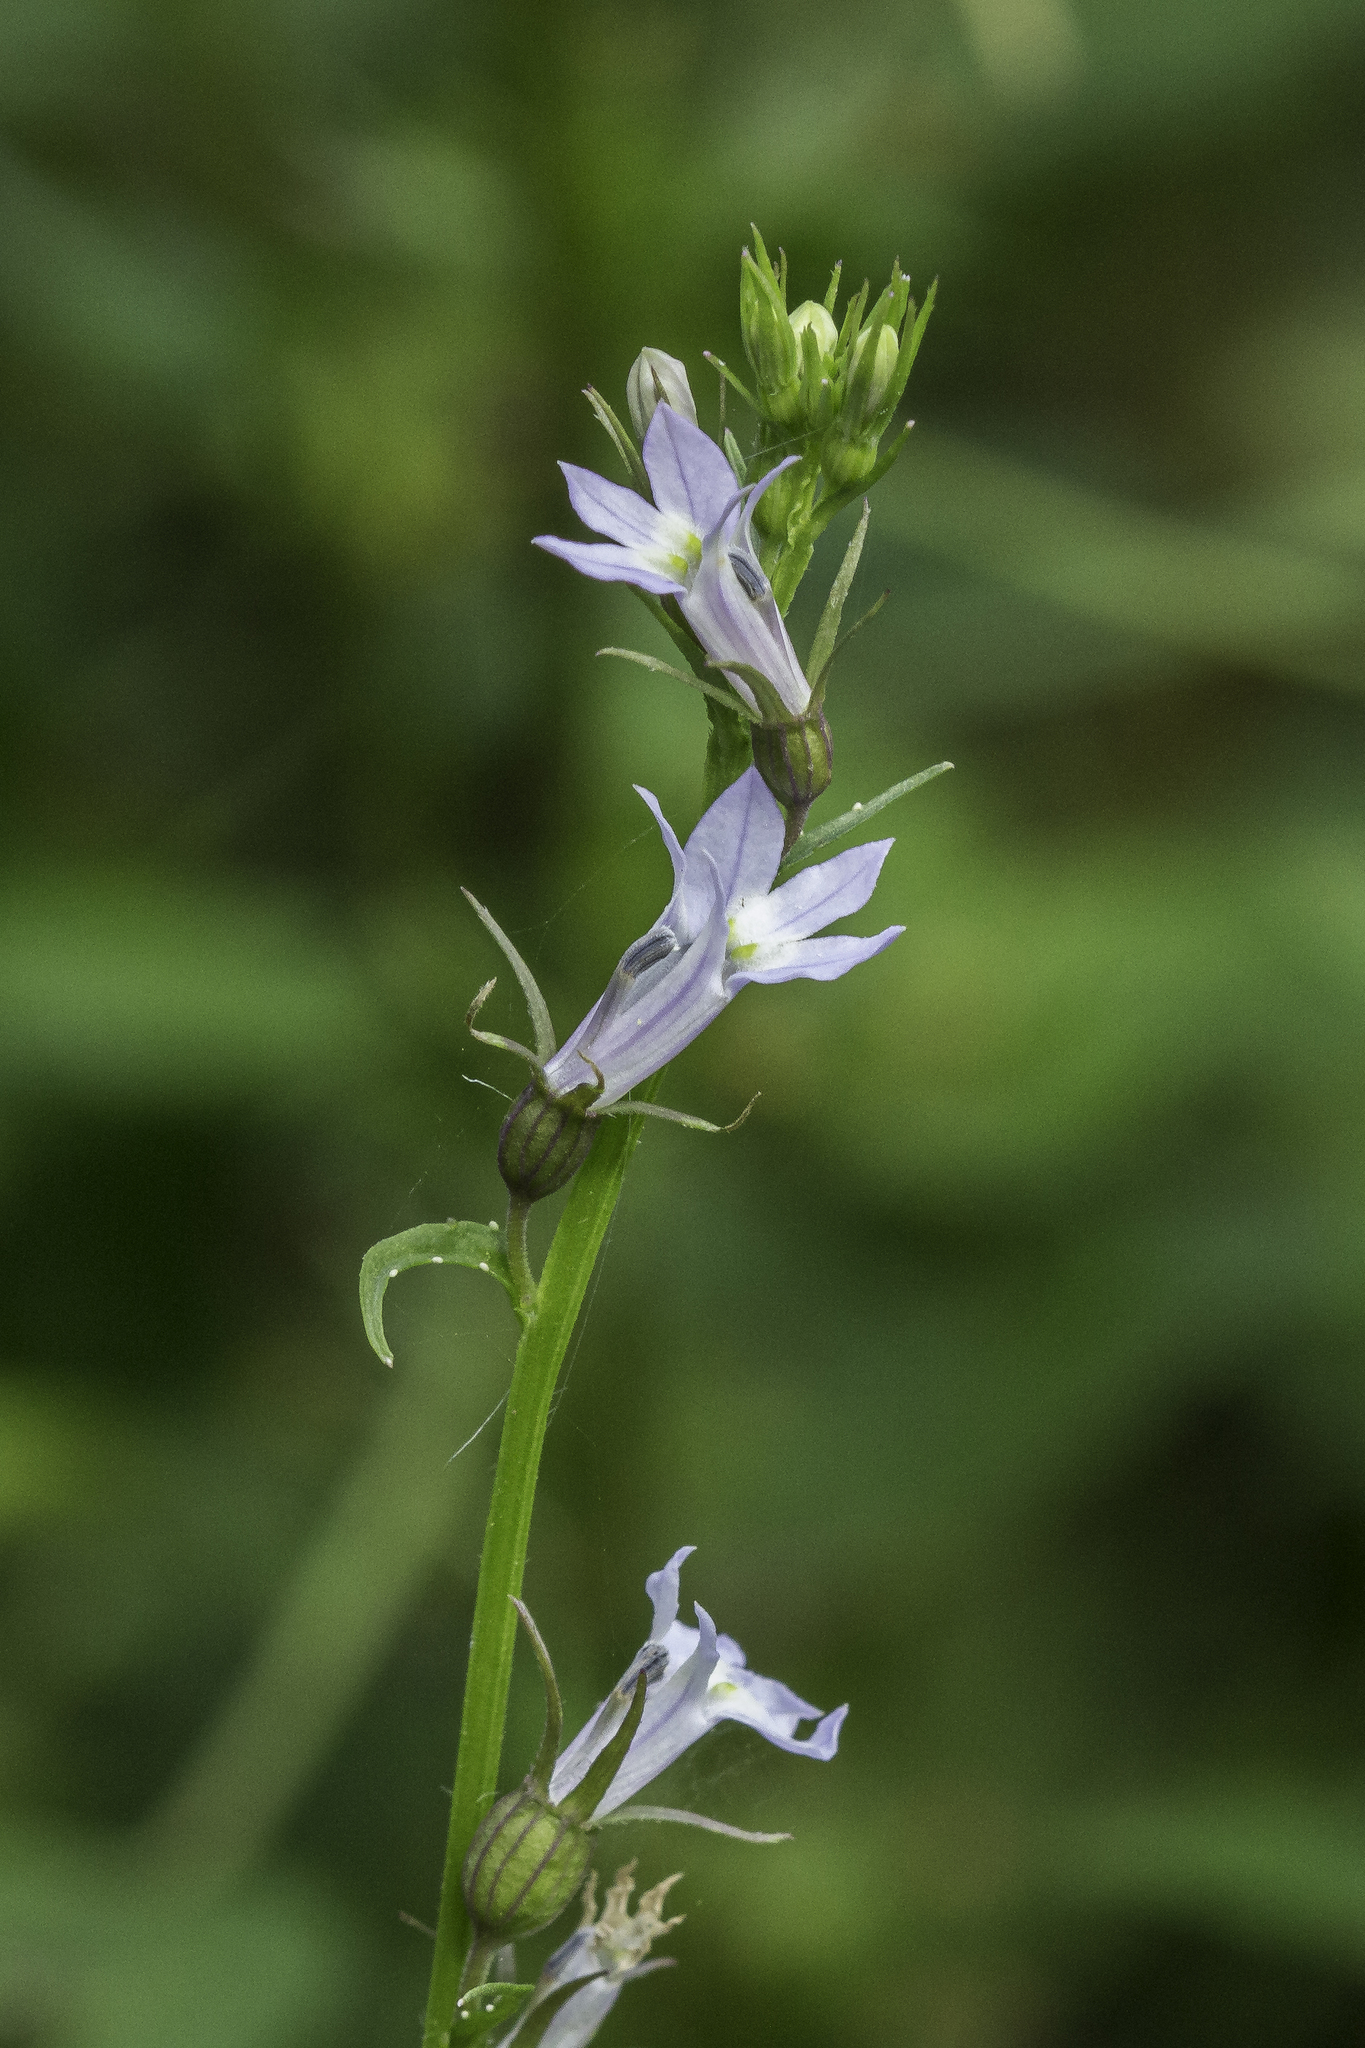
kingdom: Plantae
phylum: Tracheophyta
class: Magnoliopsida
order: Asterales
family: Campanulaceae
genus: Lobelia
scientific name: Lobelia inflata
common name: Indian tobacco
